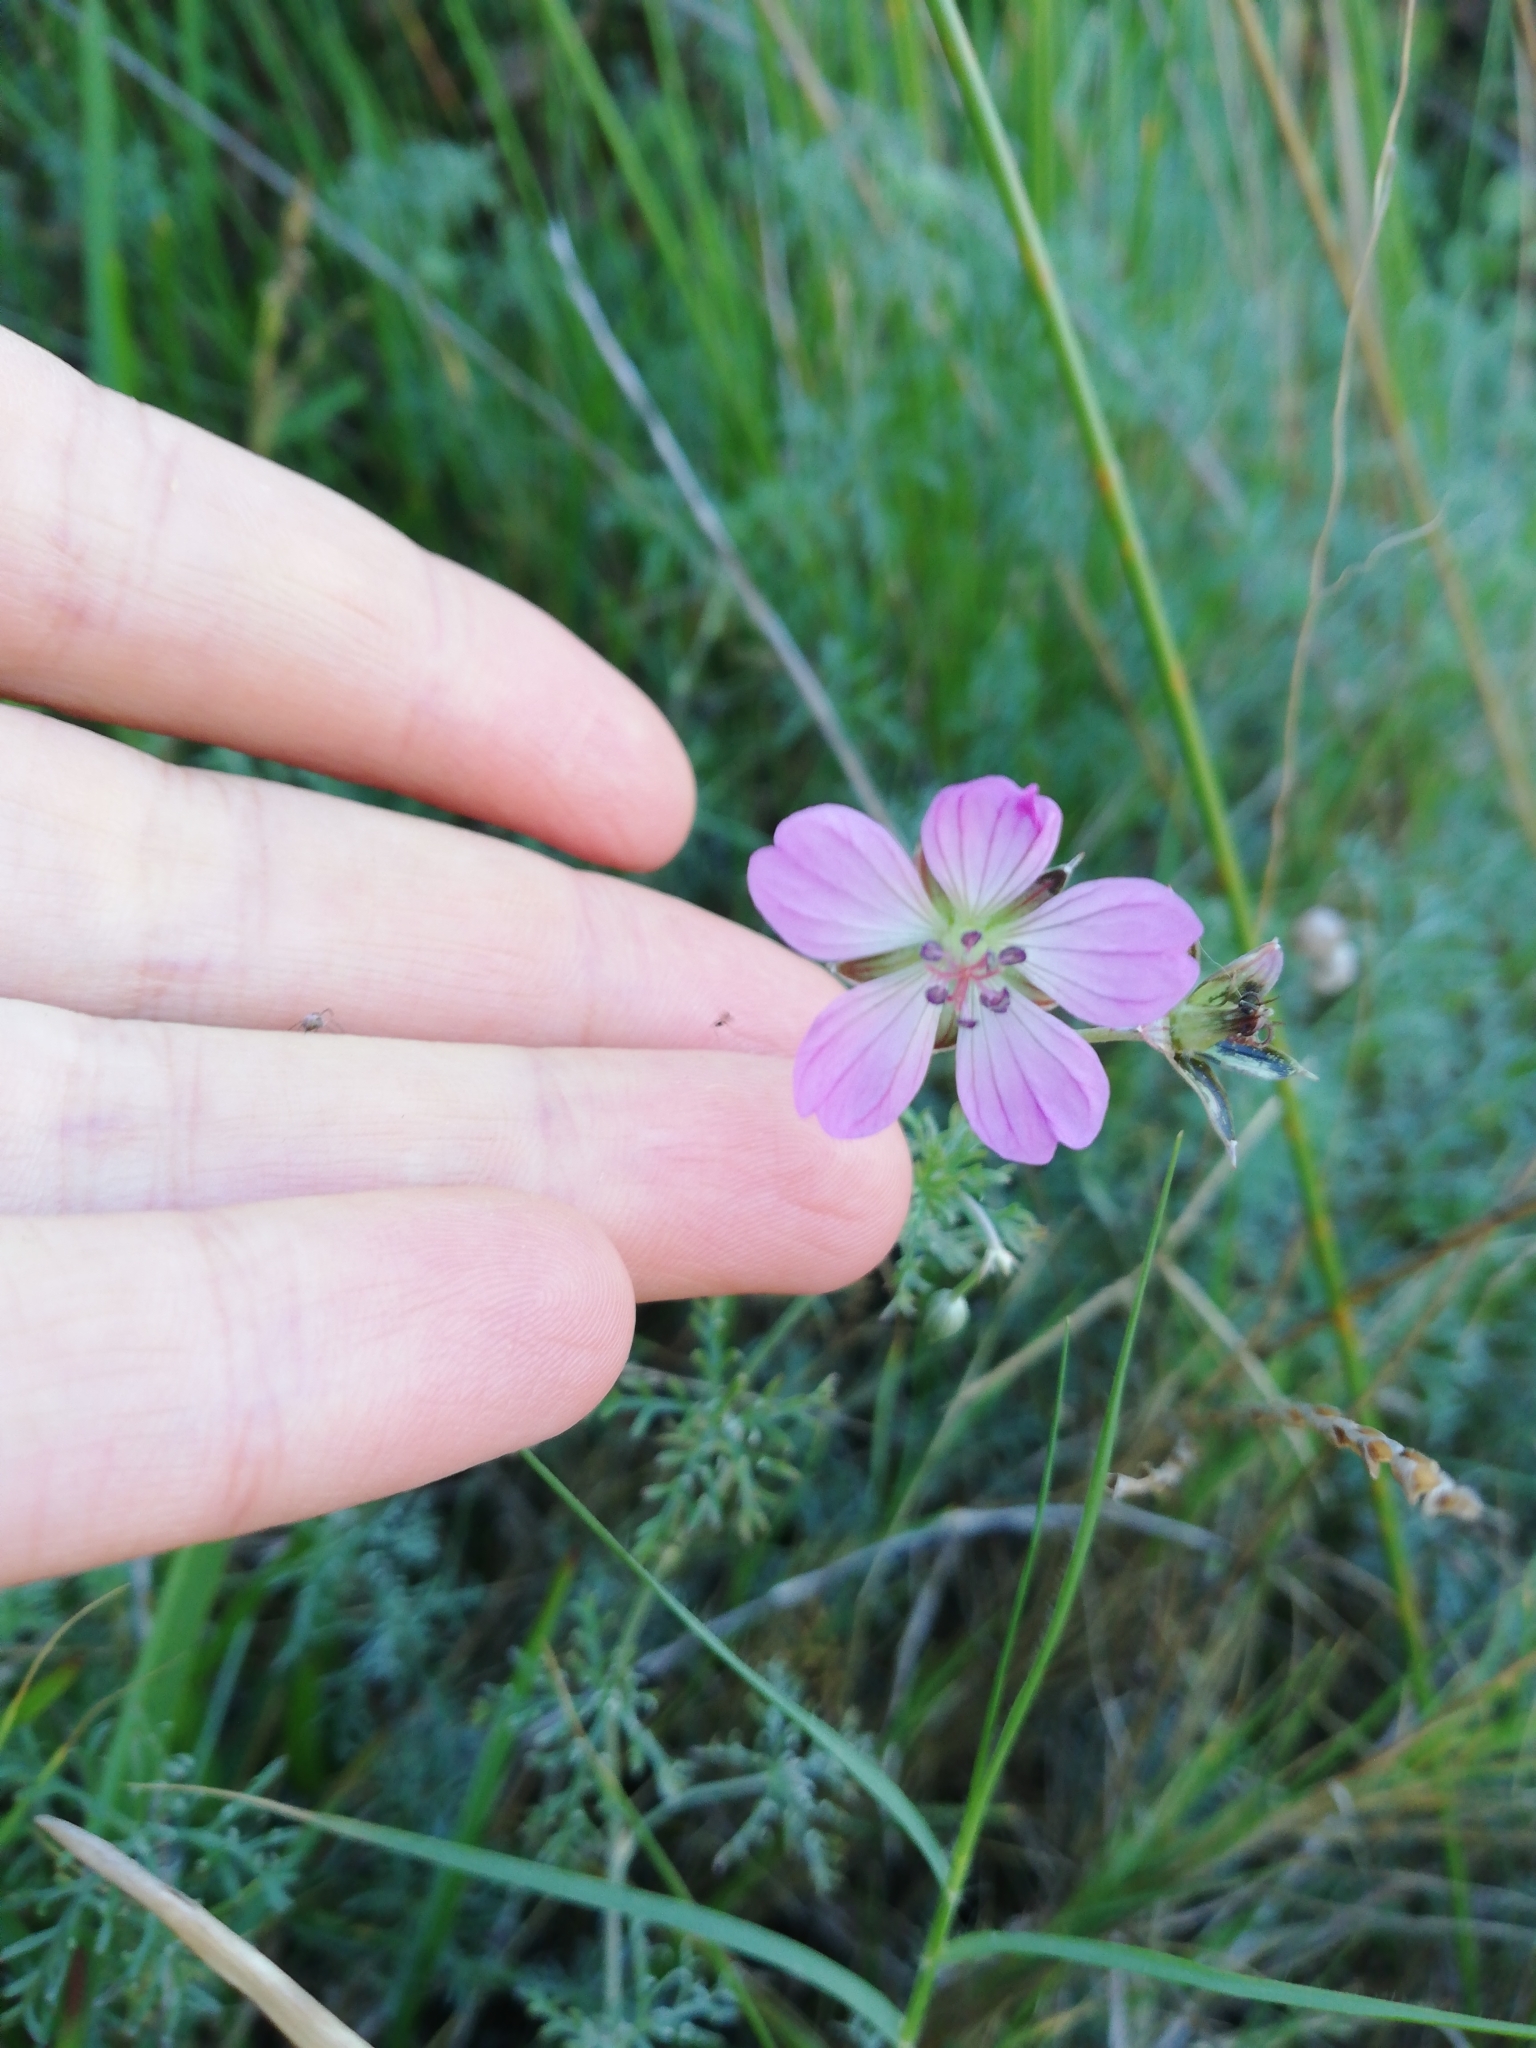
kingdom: Plantae
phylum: Tracheophyta
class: Magnoliopsida
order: Geraniales
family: Geraniaceae
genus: Geranium
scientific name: Geranium incanum
